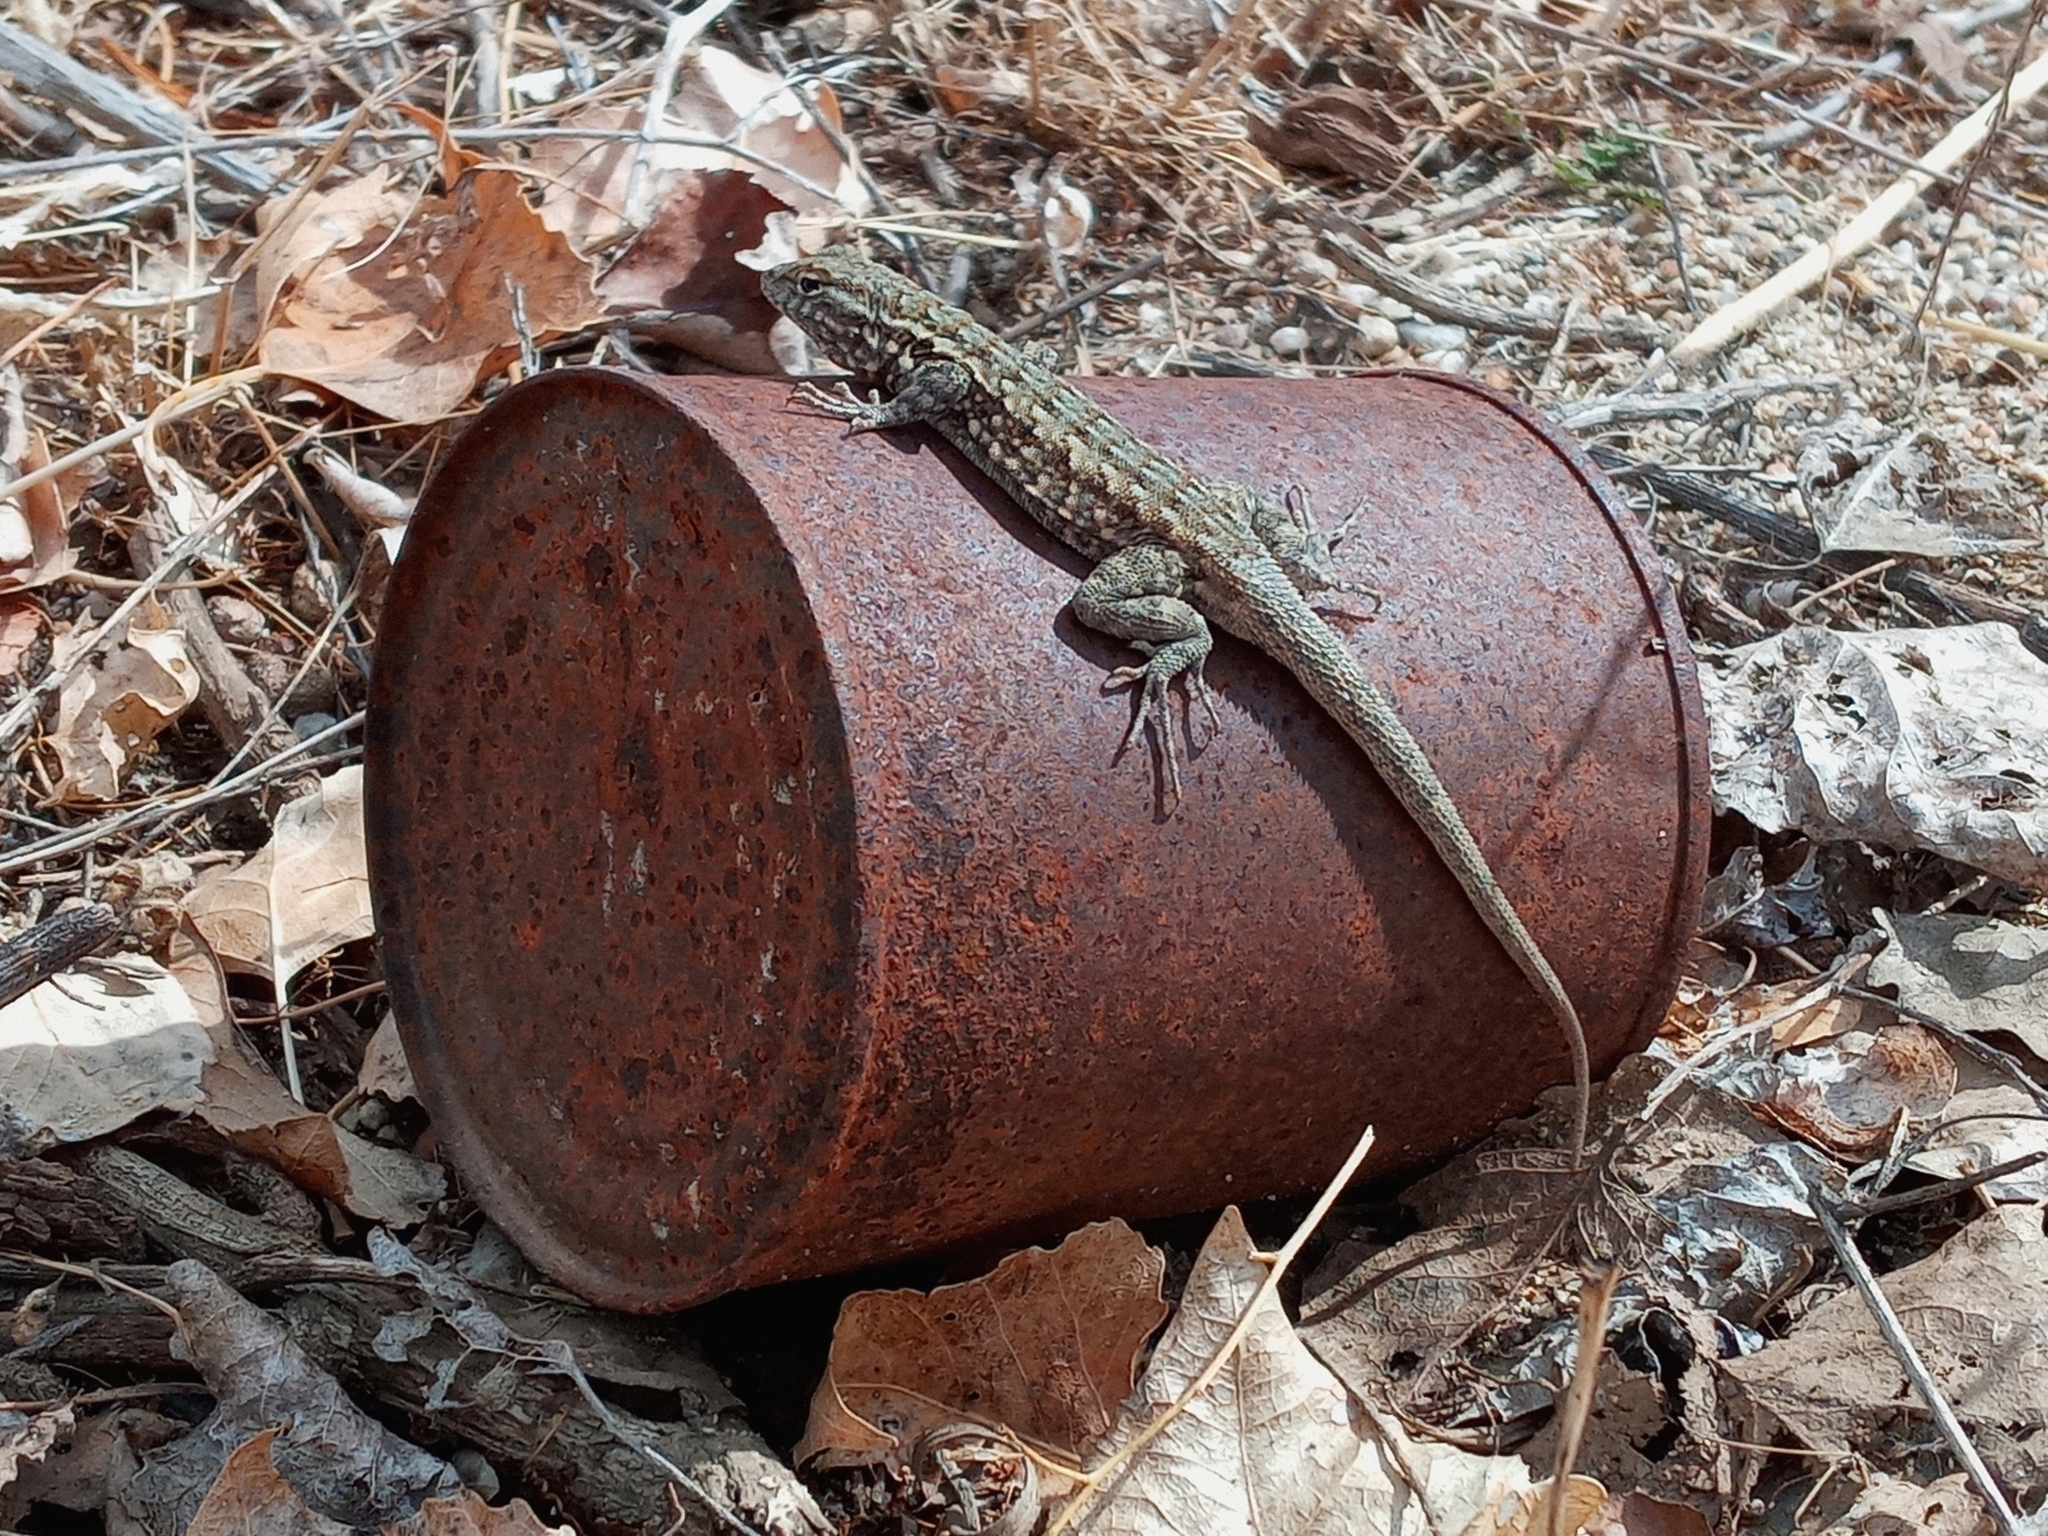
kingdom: Animalia
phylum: Chordata
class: Squamata
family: Phrynosomatidae
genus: Uta
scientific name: Uta stansburiana
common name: Side-blotched lizard
